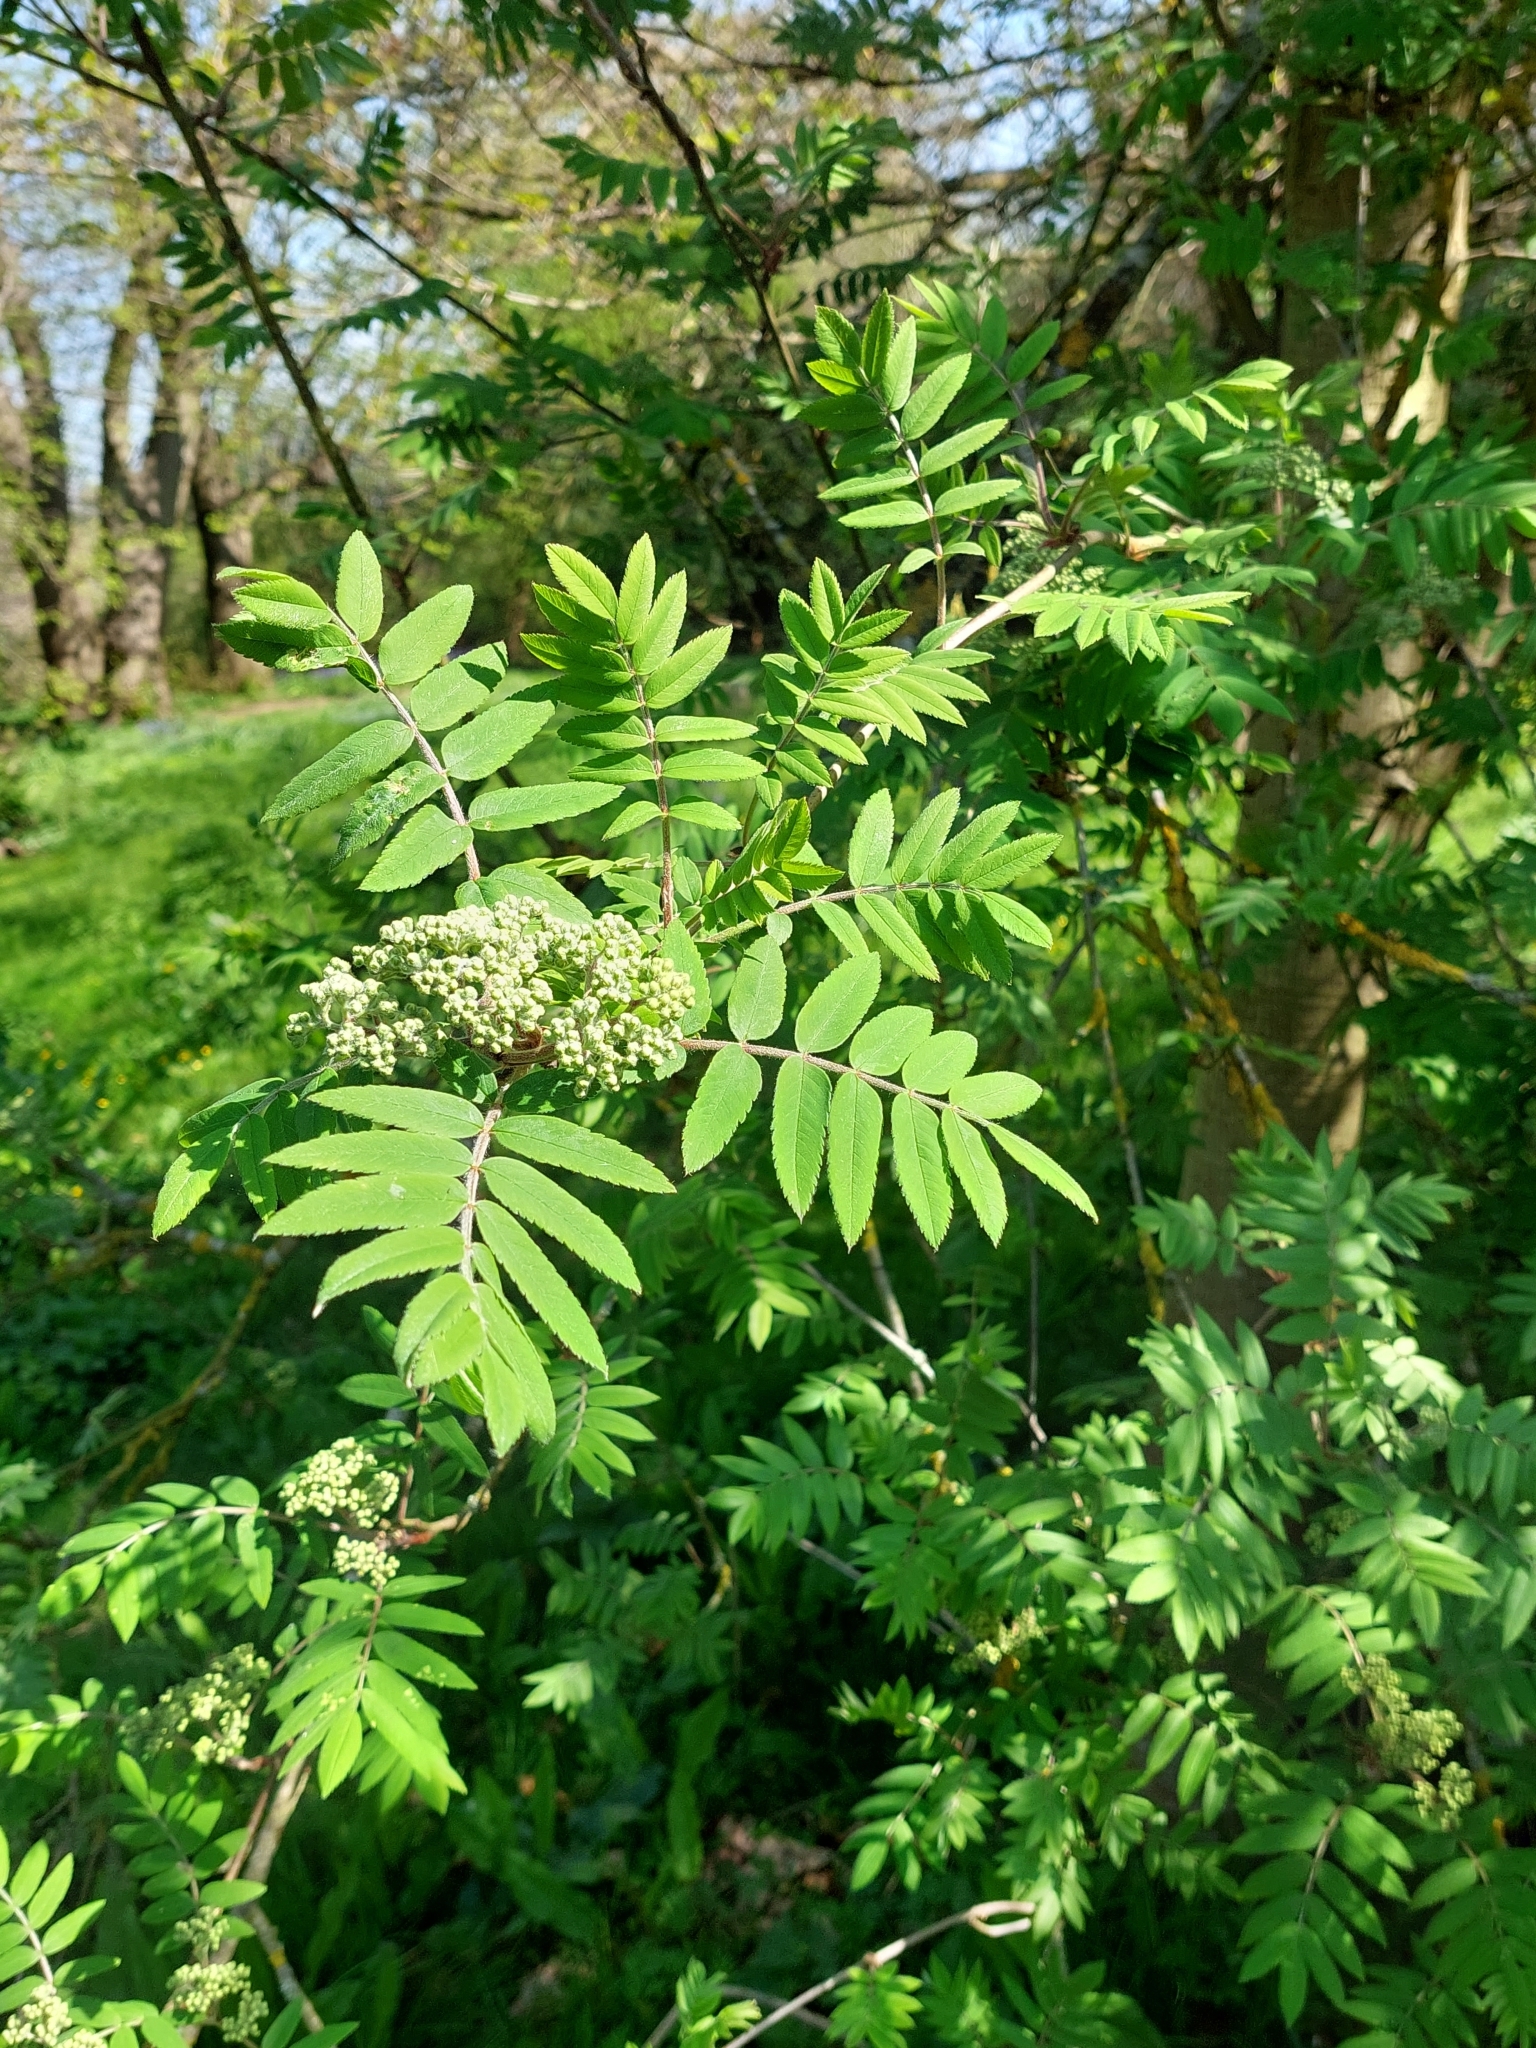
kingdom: Plantae
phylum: Tracheophyta
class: Magnoliopsida
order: Rosales
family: Rosaceae
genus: Sorbus
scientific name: Sorbus aucuparia
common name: Rowan
